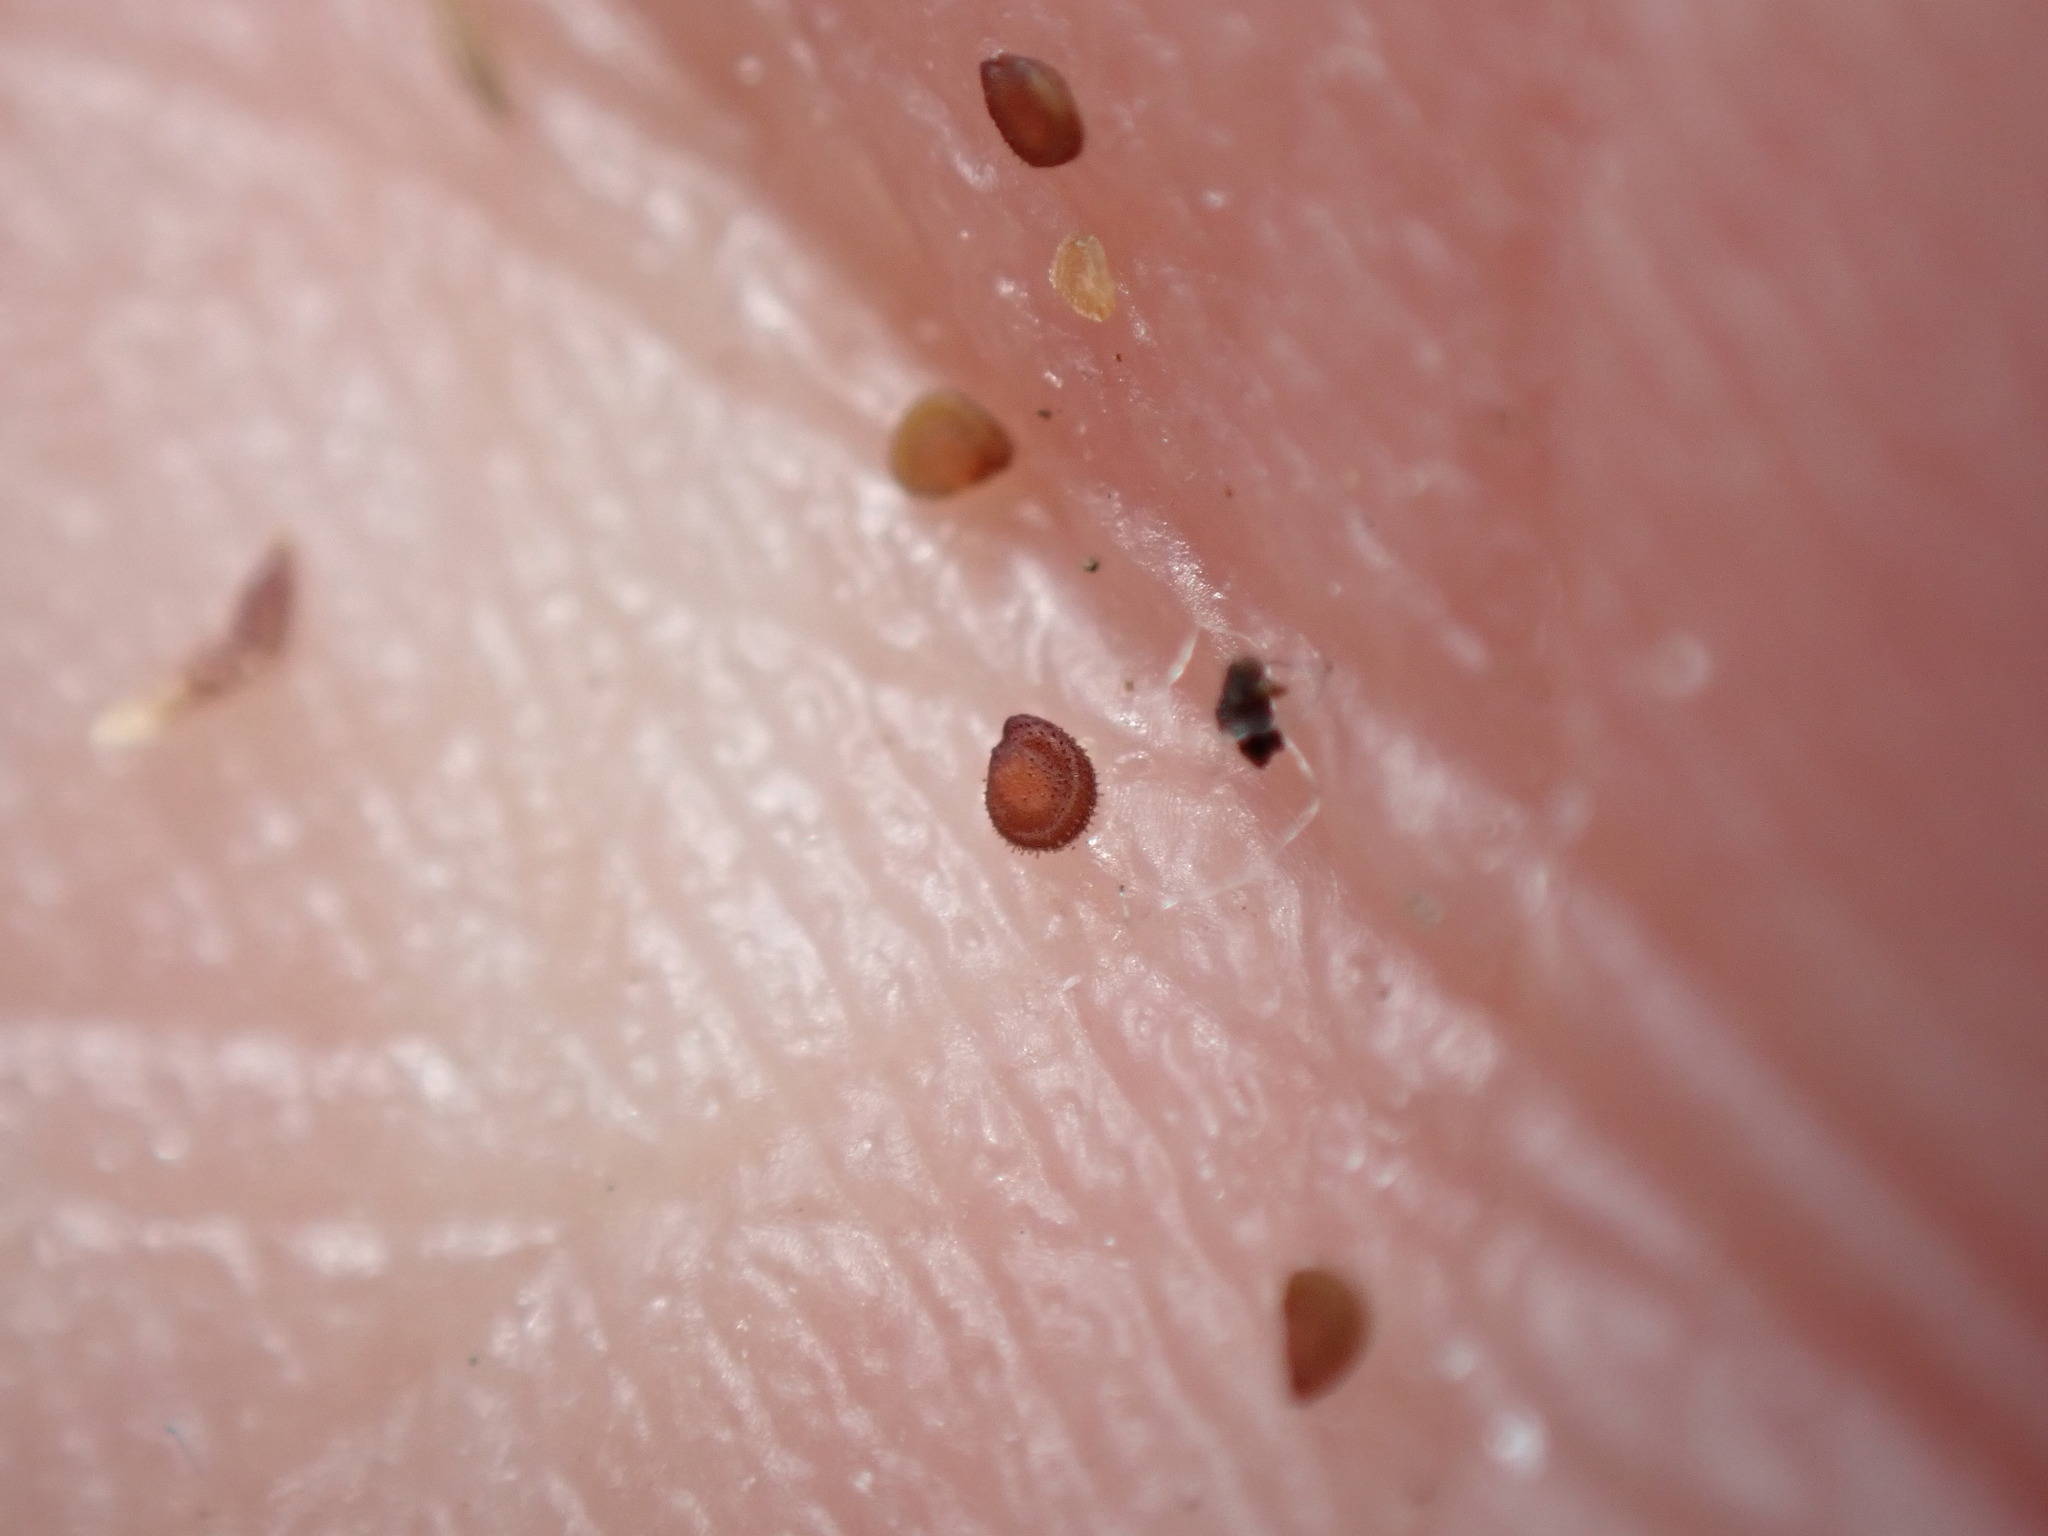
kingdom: Plantae
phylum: Tracheophyta
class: Magnoliopsida
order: Caryophyllales
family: Caryophyllaceae
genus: Spergularia
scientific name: Spergularia marina
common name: Lesser sea-spurrey
